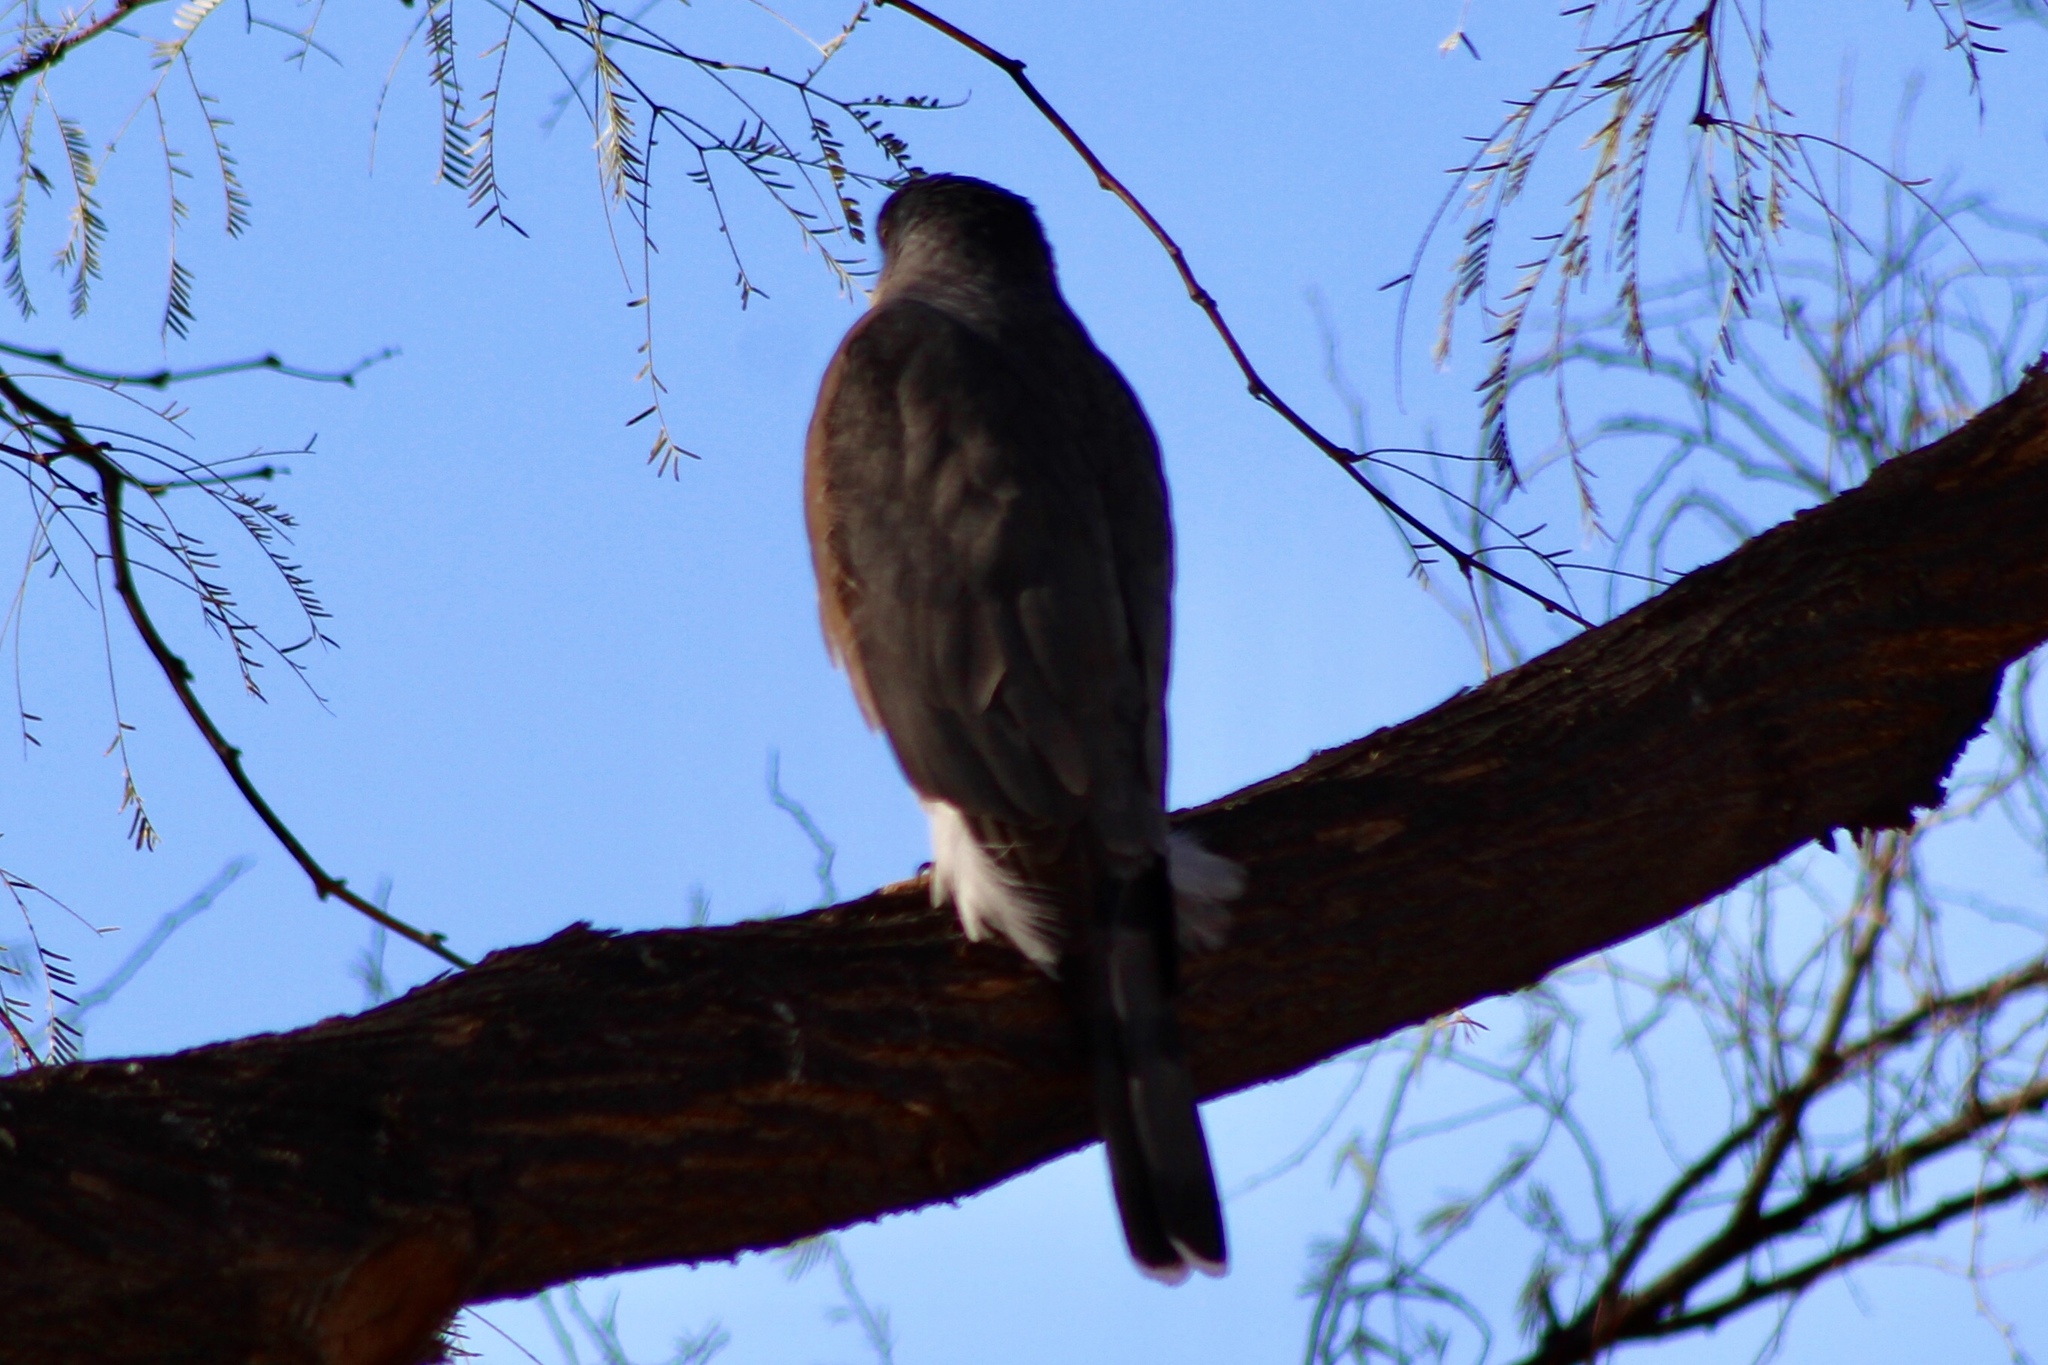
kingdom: Animalia
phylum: Chordata
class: Aves
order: Accipitriformes
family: Accipitridae
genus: Accipiter
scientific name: Accipiter cooperii
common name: Cooper's hawk
